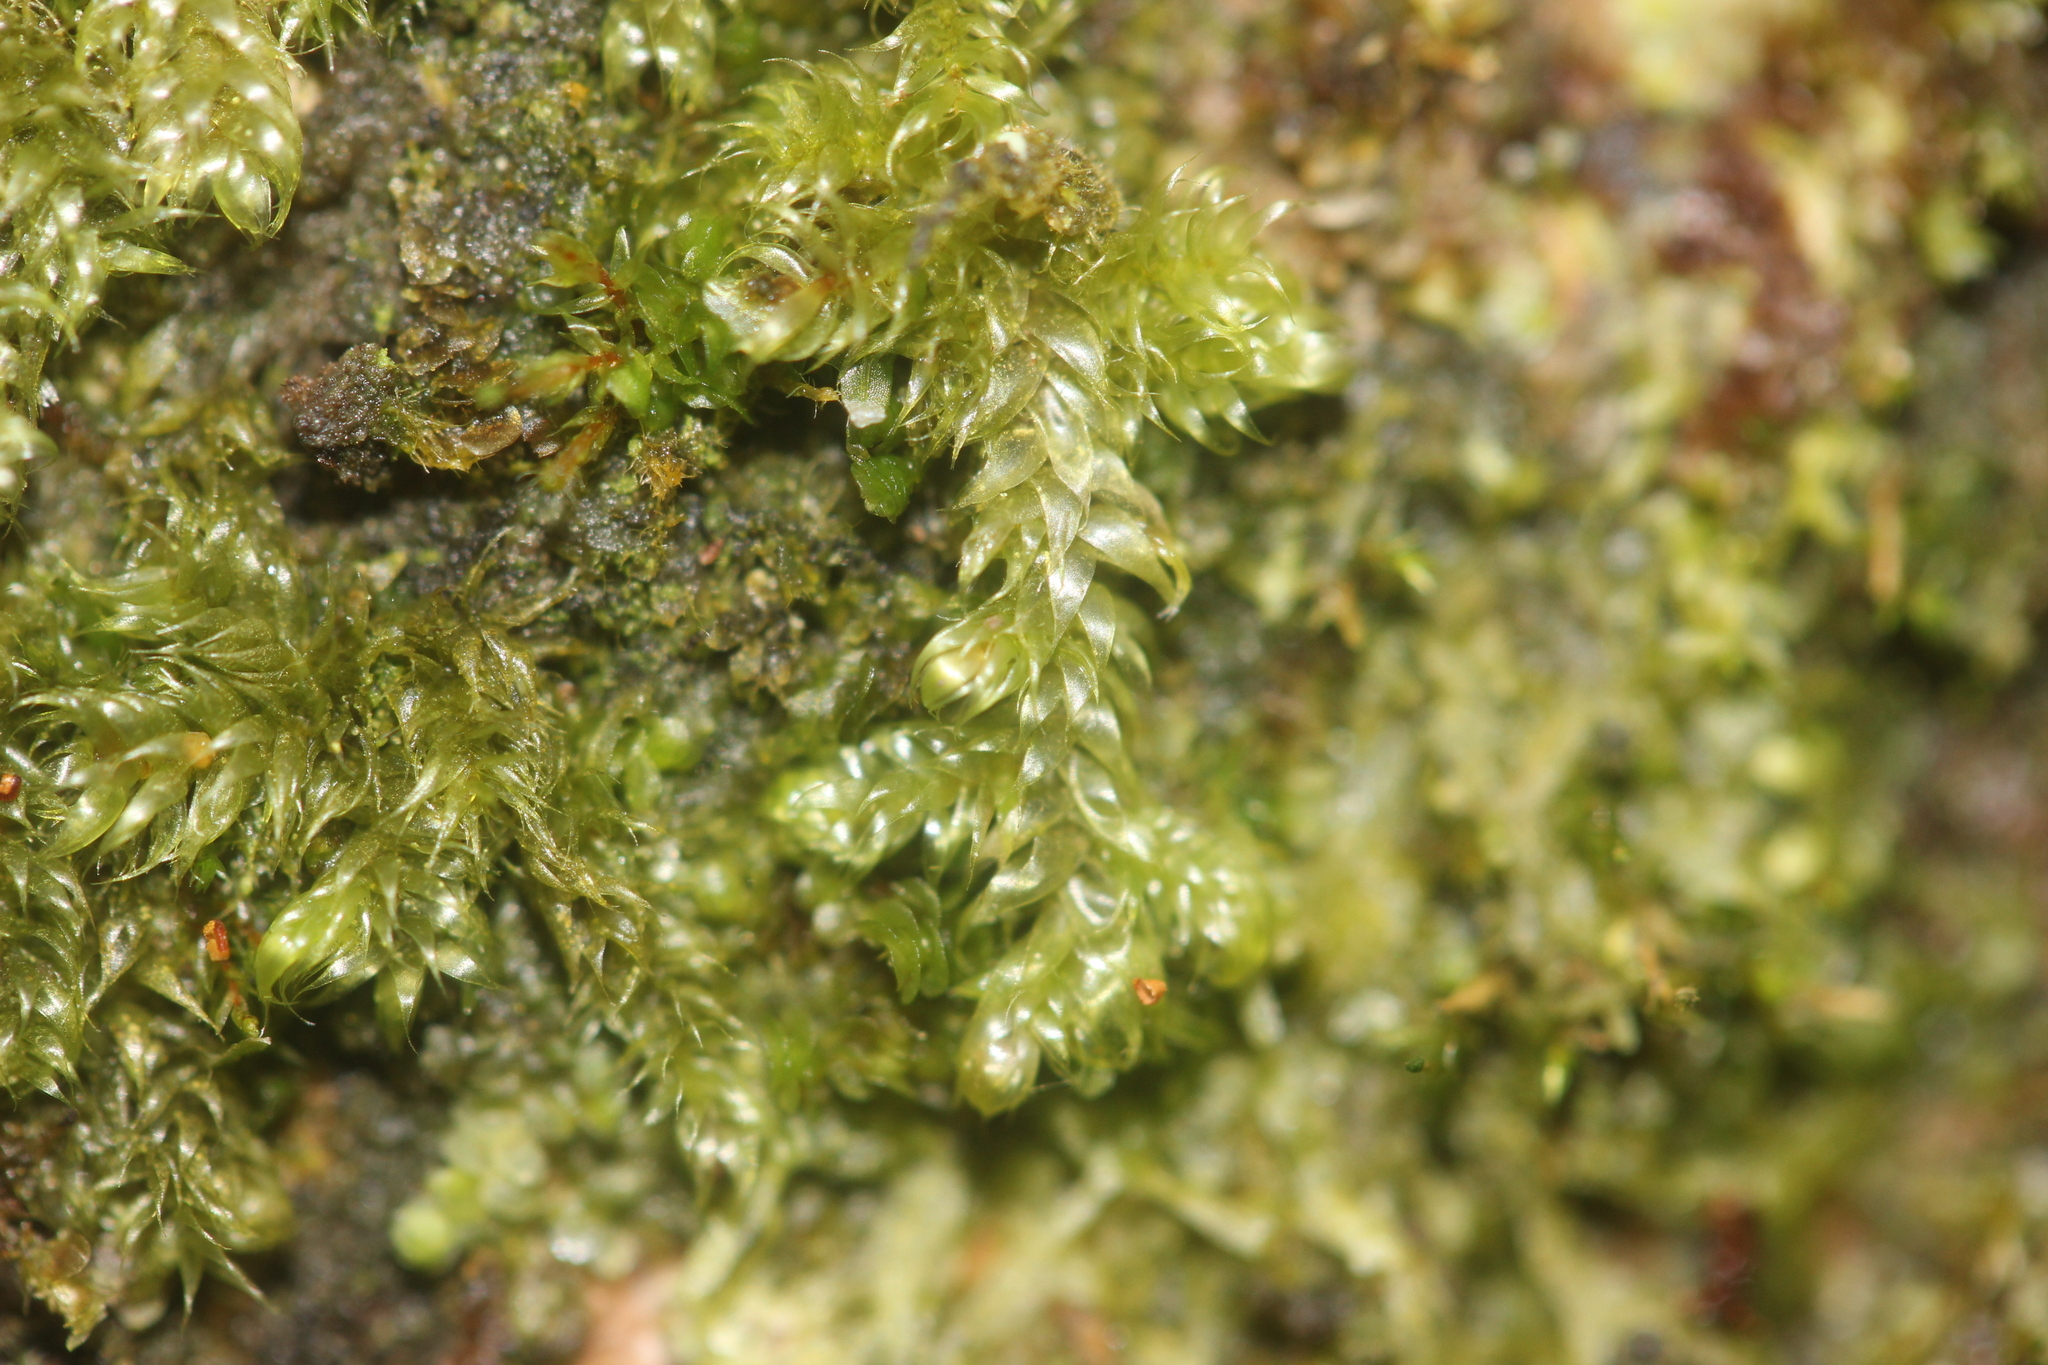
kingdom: Plantae
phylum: Bryophyta
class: Bryopsida
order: Hypnales
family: Hypnaceae
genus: Hypnum
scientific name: Hypnum cupressiforme
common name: Cypress-leaved plait-moss
